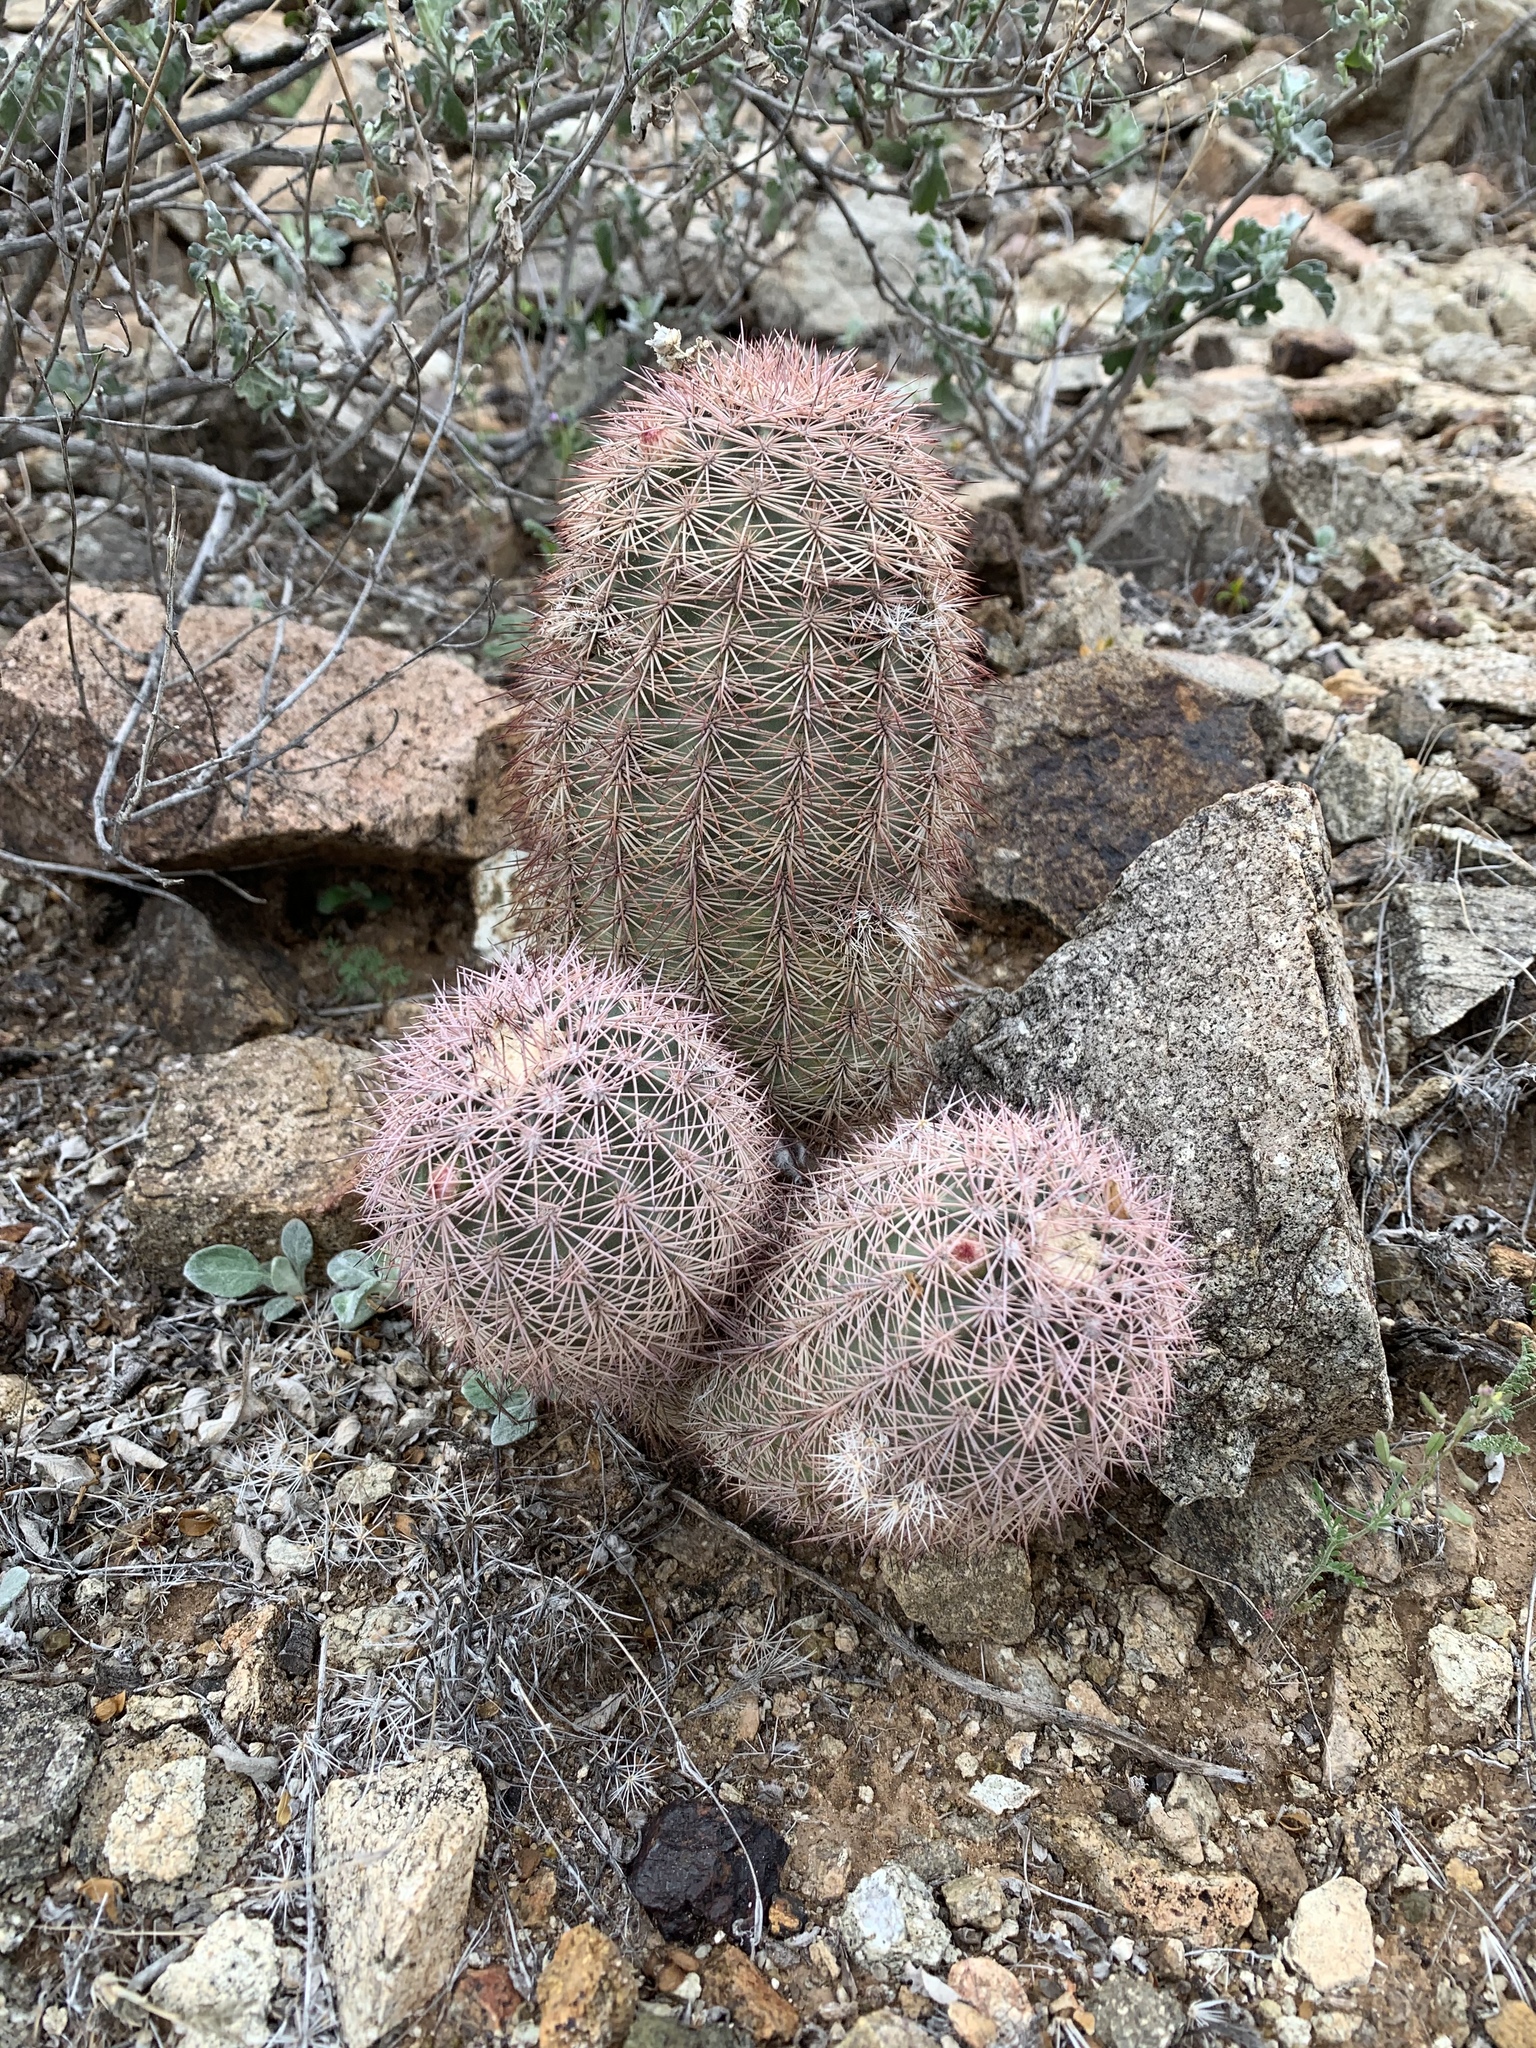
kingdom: Plantae
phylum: Tracheophyta
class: Magnoliopsida
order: Caryophyllales
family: Cactaceae
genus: Echinocereus
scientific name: Echinocereus dasyacanthus
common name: Spiny hedgehog cactus
